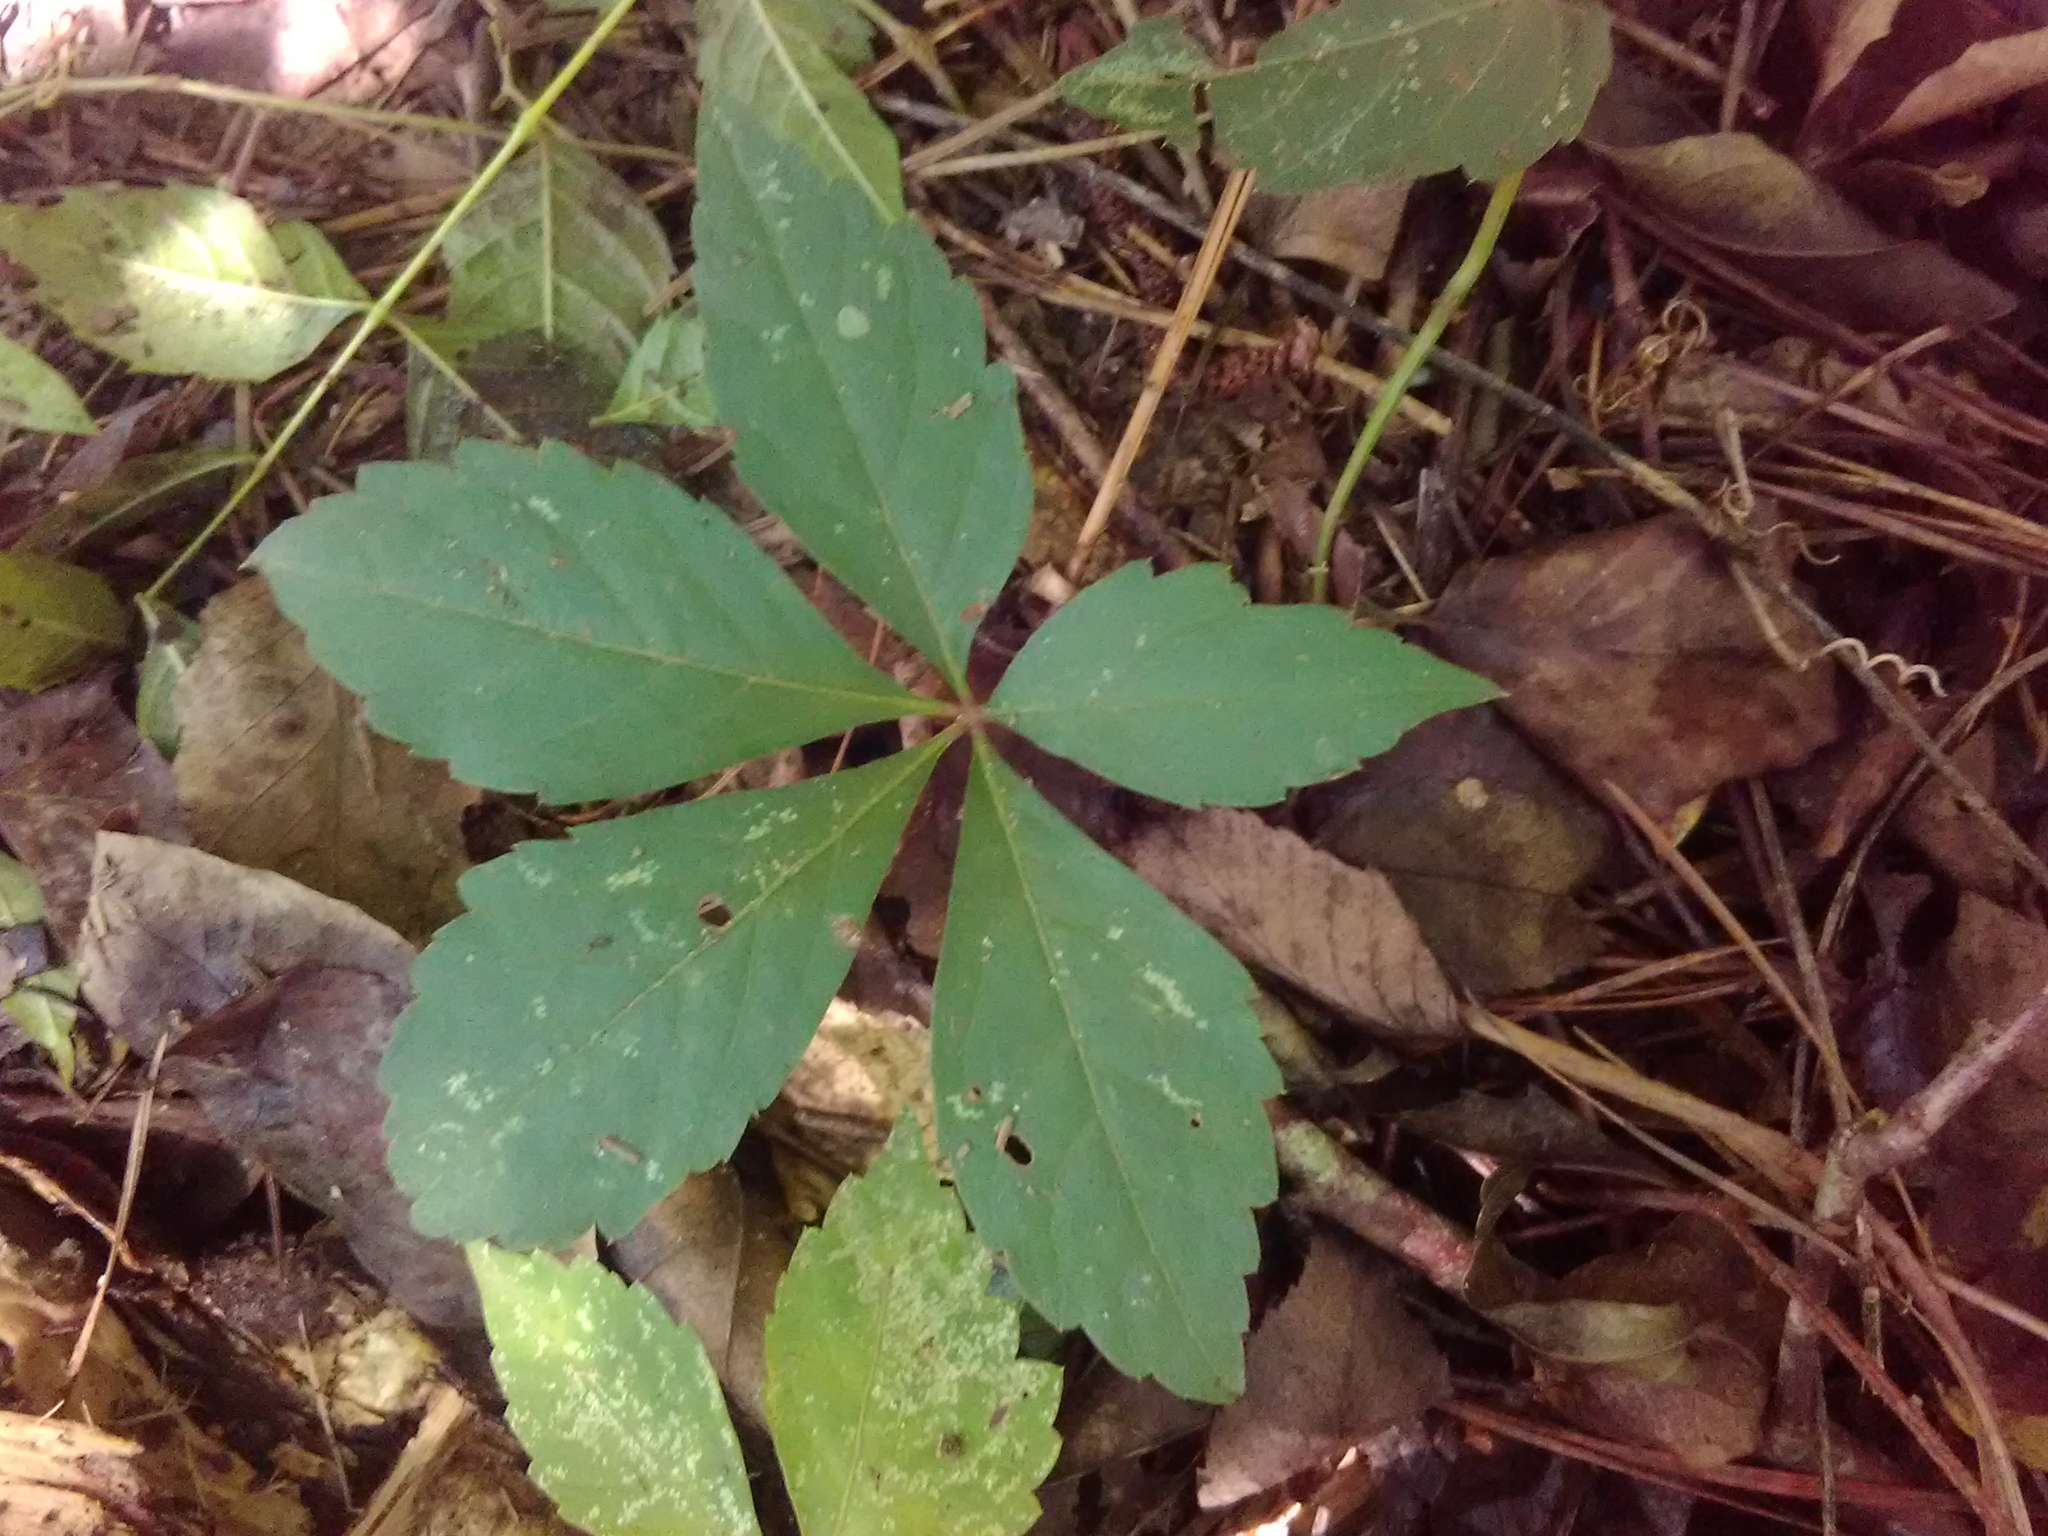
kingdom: Plantae
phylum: Tracheophyta
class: Magnoliopsida
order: Vitales
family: Vitaceae
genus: Parthenocissus
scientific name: Parthenocissus quinquefolia
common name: Virginia-creeper
